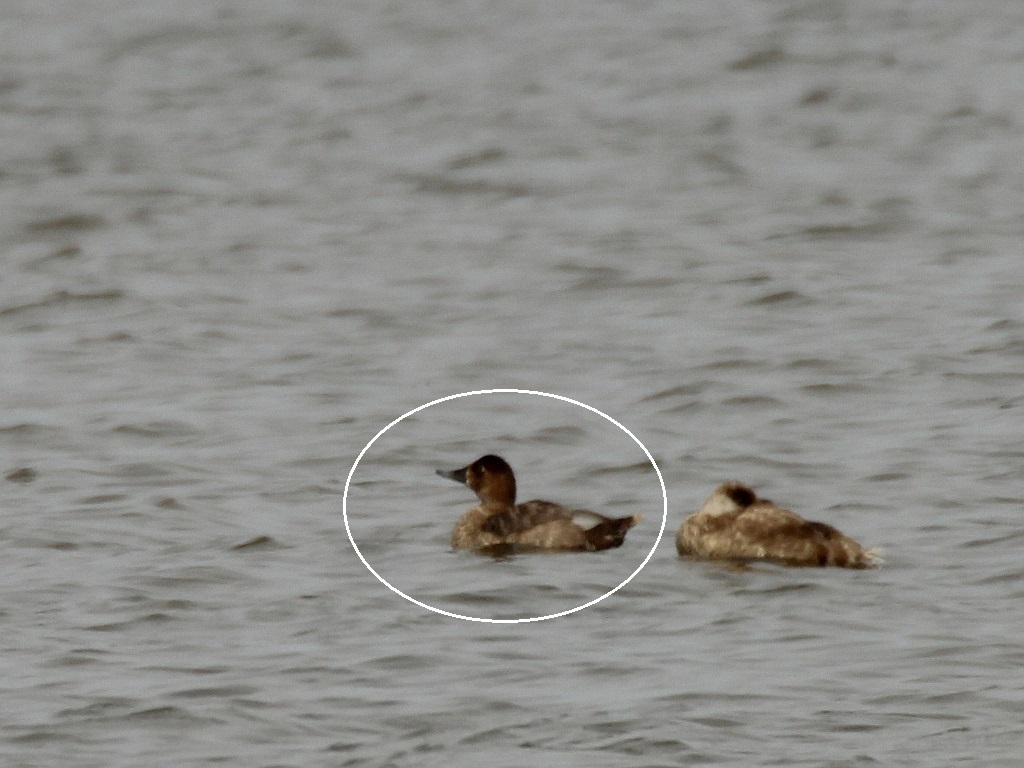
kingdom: Animalia
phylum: Chordata
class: Aves
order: Anseriformes
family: Anatidae
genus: Aythya
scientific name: Aythya ferina
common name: Common pochard
